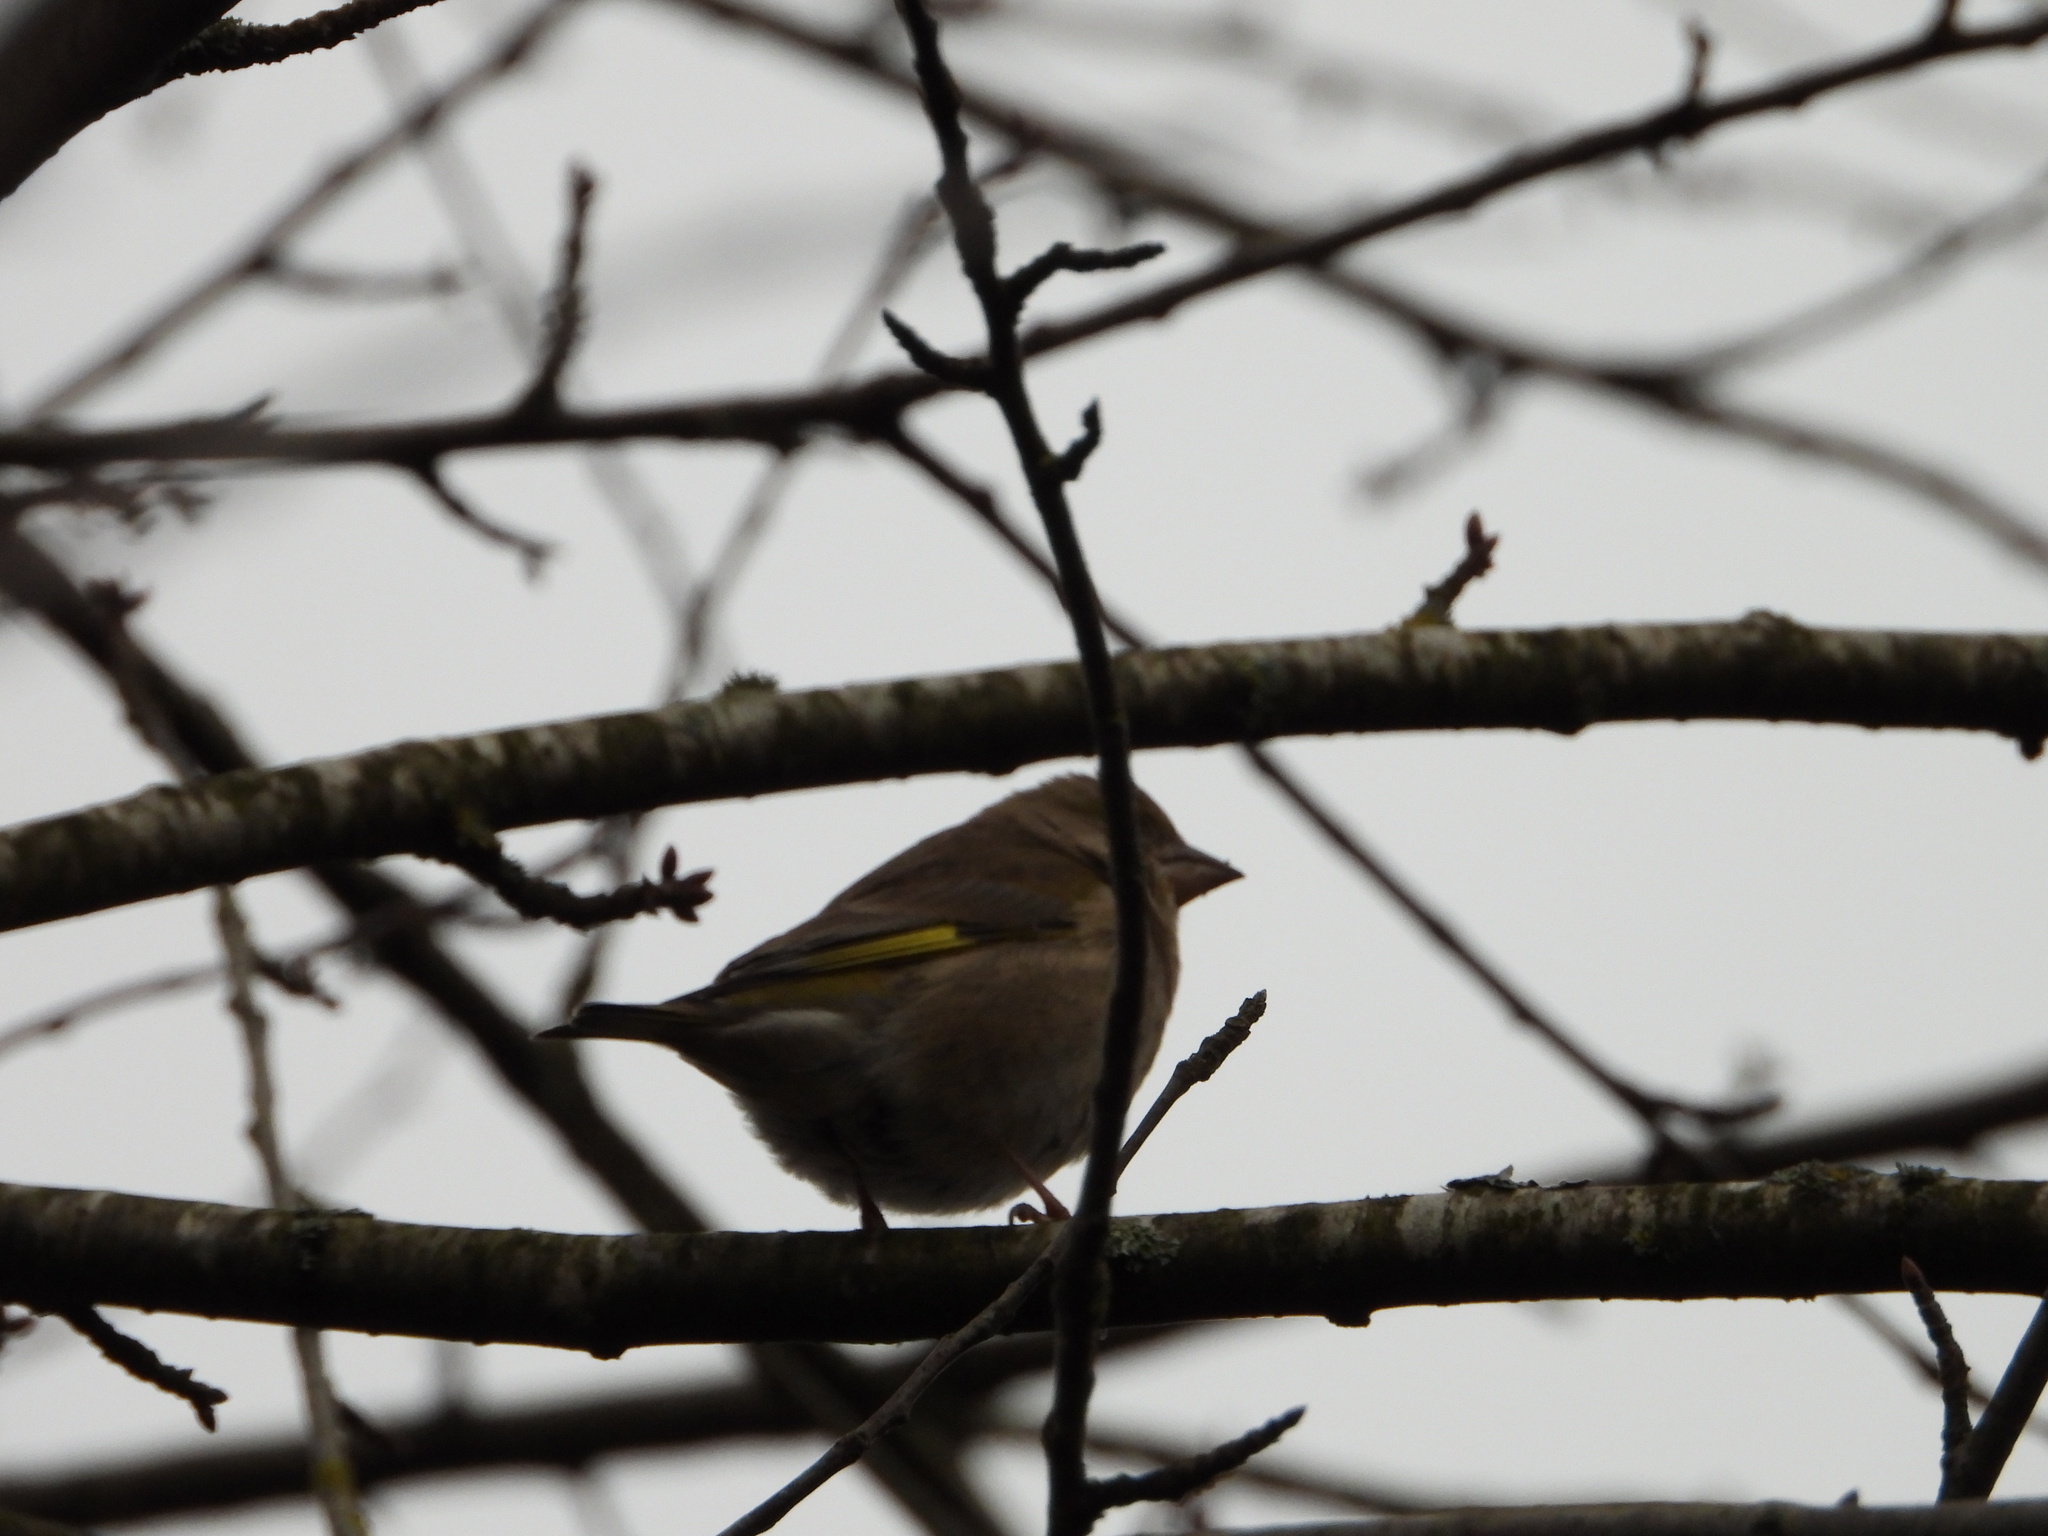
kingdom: Plantae
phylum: Tracheophyta
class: Liliopsida
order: Poales
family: Poaceae
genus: Chloris
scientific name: Chloris chloris
